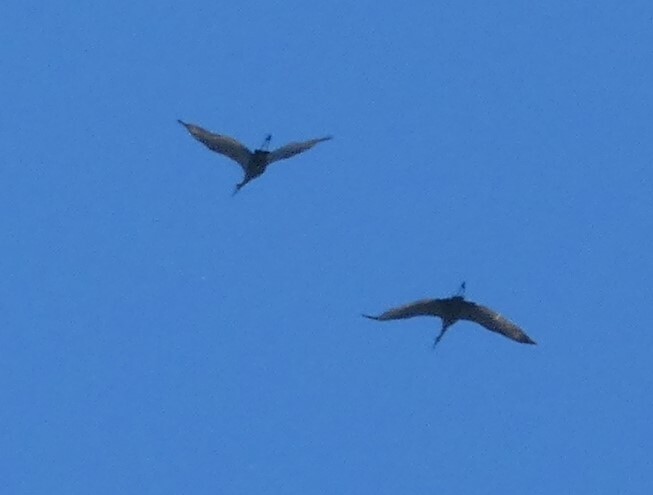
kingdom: Animalia
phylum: Chordata
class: Aves
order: Gruiformes
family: Gruidae
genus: Grus
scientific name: Grus canadensis
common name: Sandhill crane
